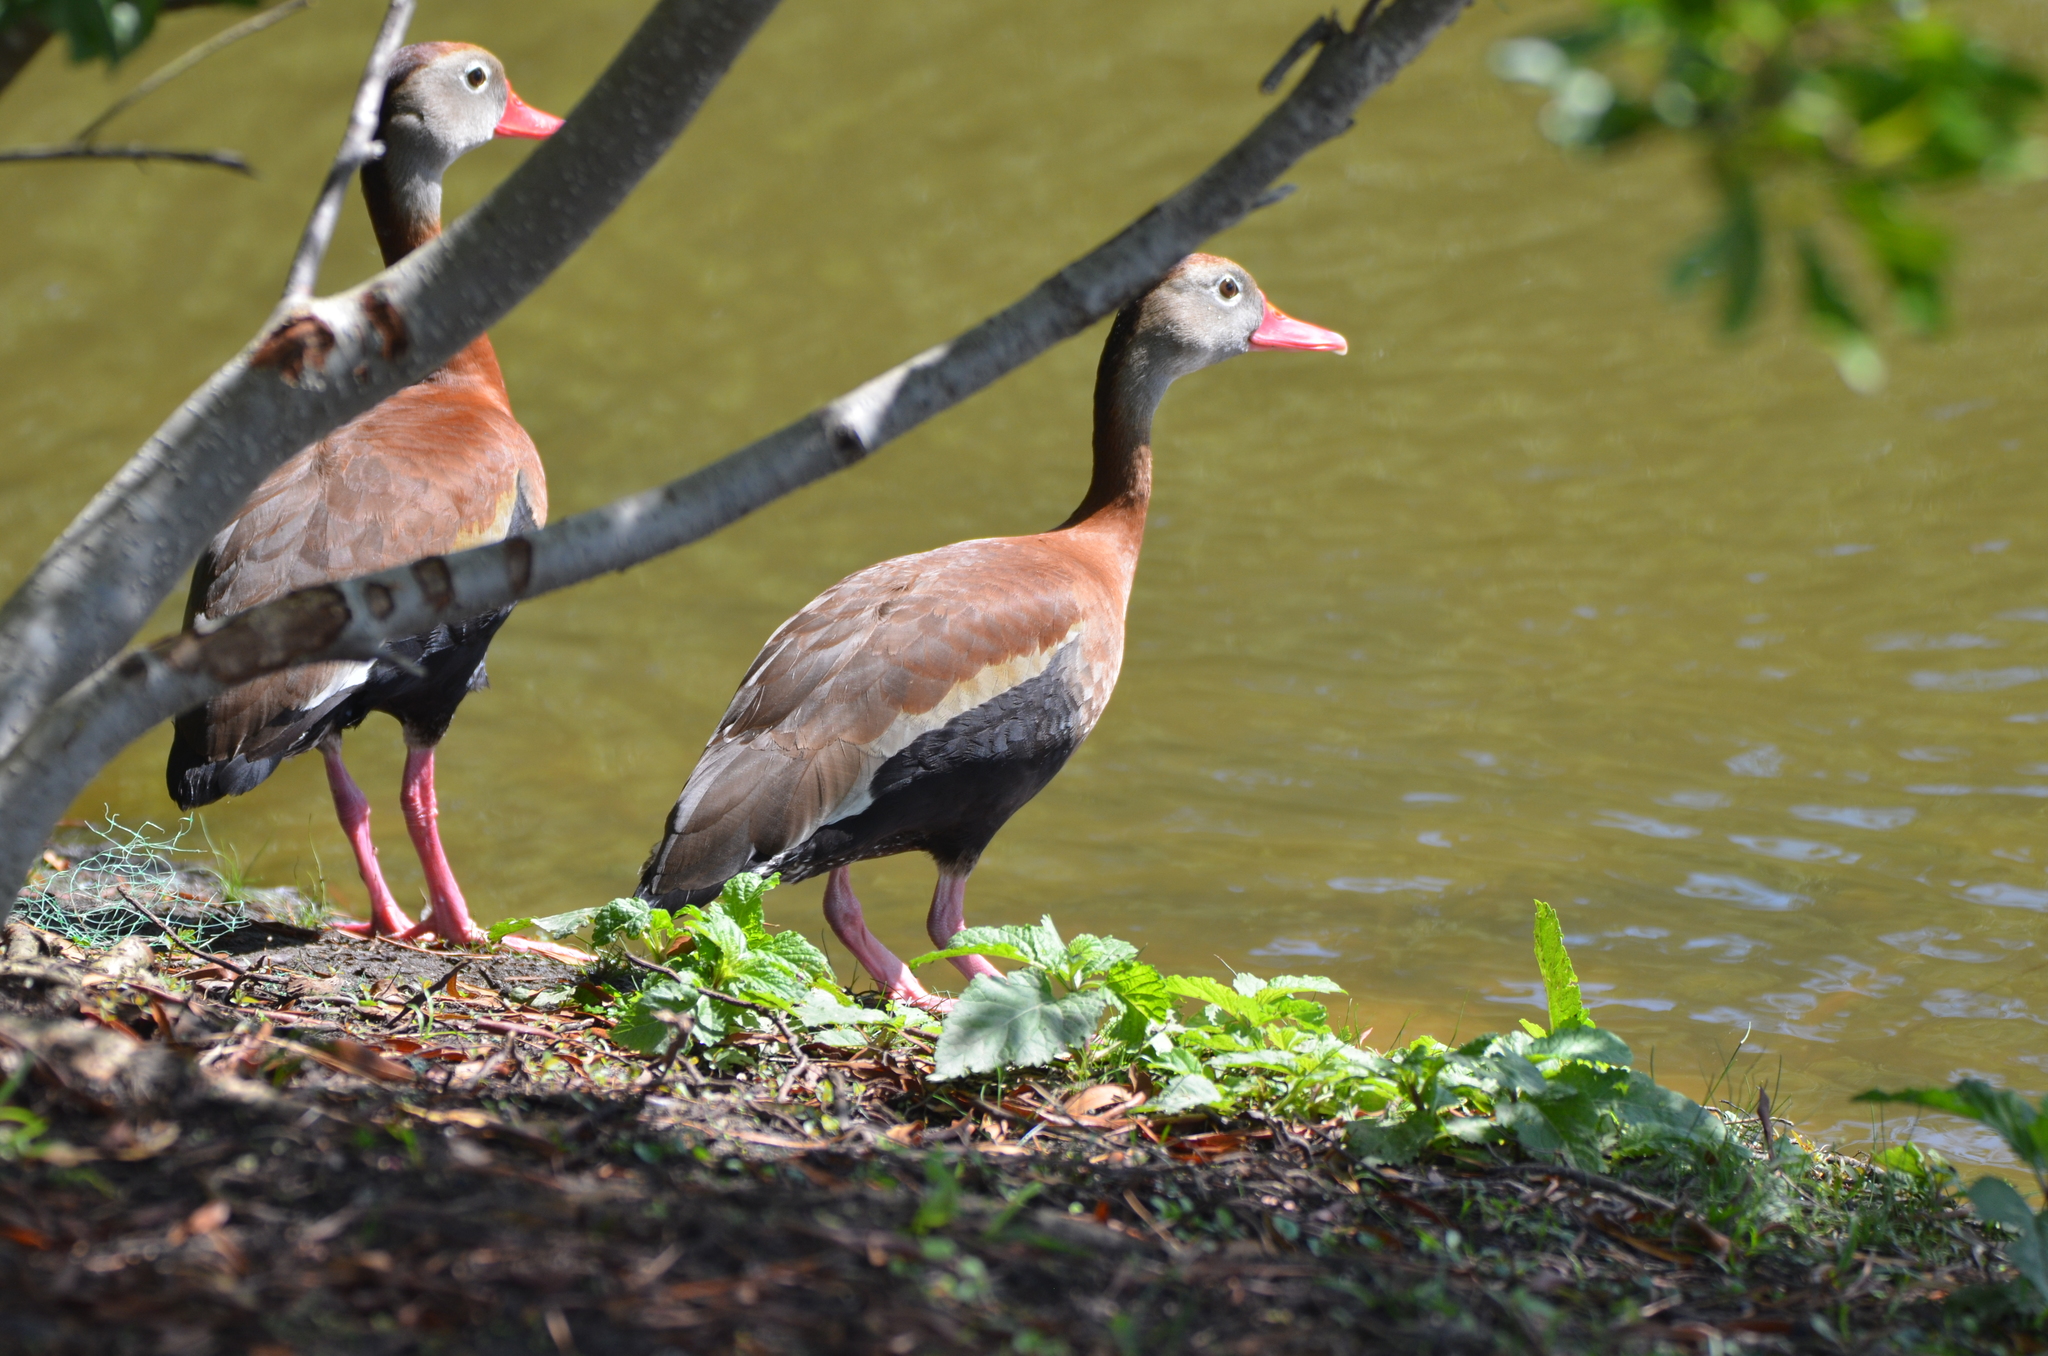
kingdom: Animalia
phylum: Chordata
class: Aves
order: Anseriformes
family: Anatidae
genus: Dendrocygna
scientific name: Dendrocygna autumnalis
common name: Black-bellied whistling duck
